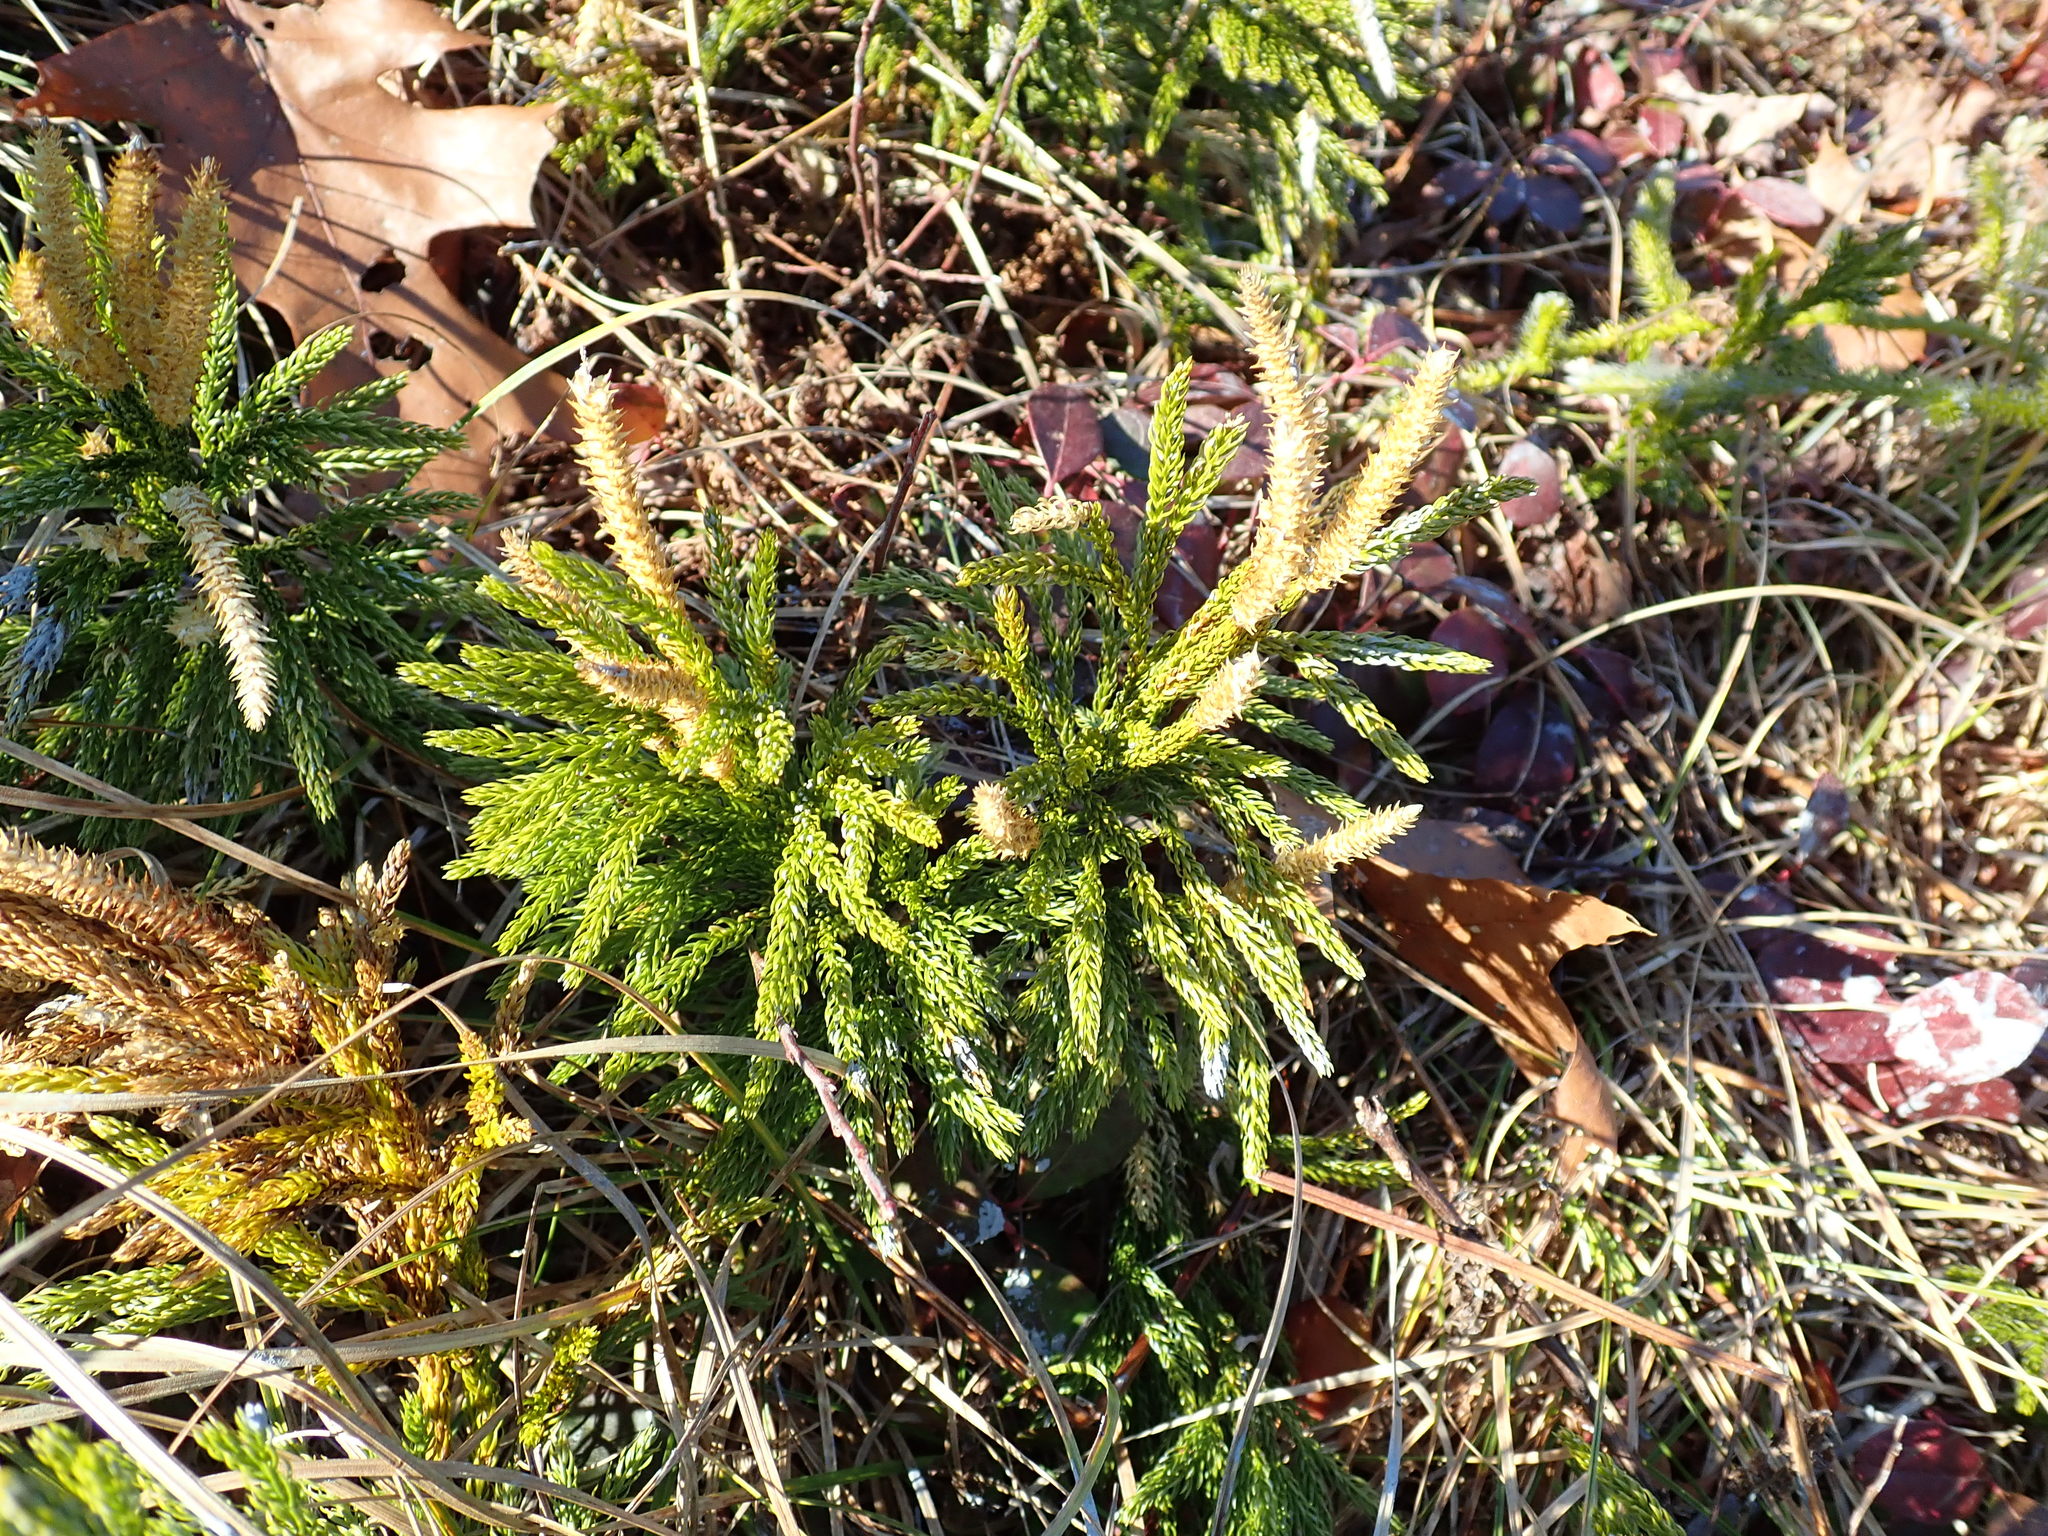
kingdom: Plantae
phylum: Tracheophyta
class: Lycopodiopsida
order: Lycopodiales
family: Lycopodiaceae
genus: Dendrolycopodium
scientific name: Dendrolycopodium hickeyi
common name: Hickey's clubmoss
